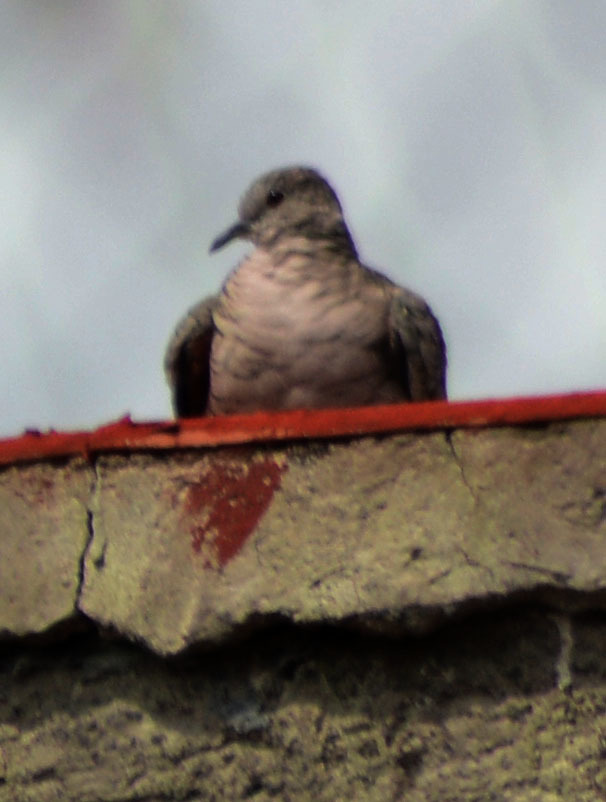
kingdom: Animalia
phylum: Chordata
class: Aves
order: Columbiformes
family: Columbidae
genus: Columbina
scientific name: Columbina inca
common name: Inca dove
